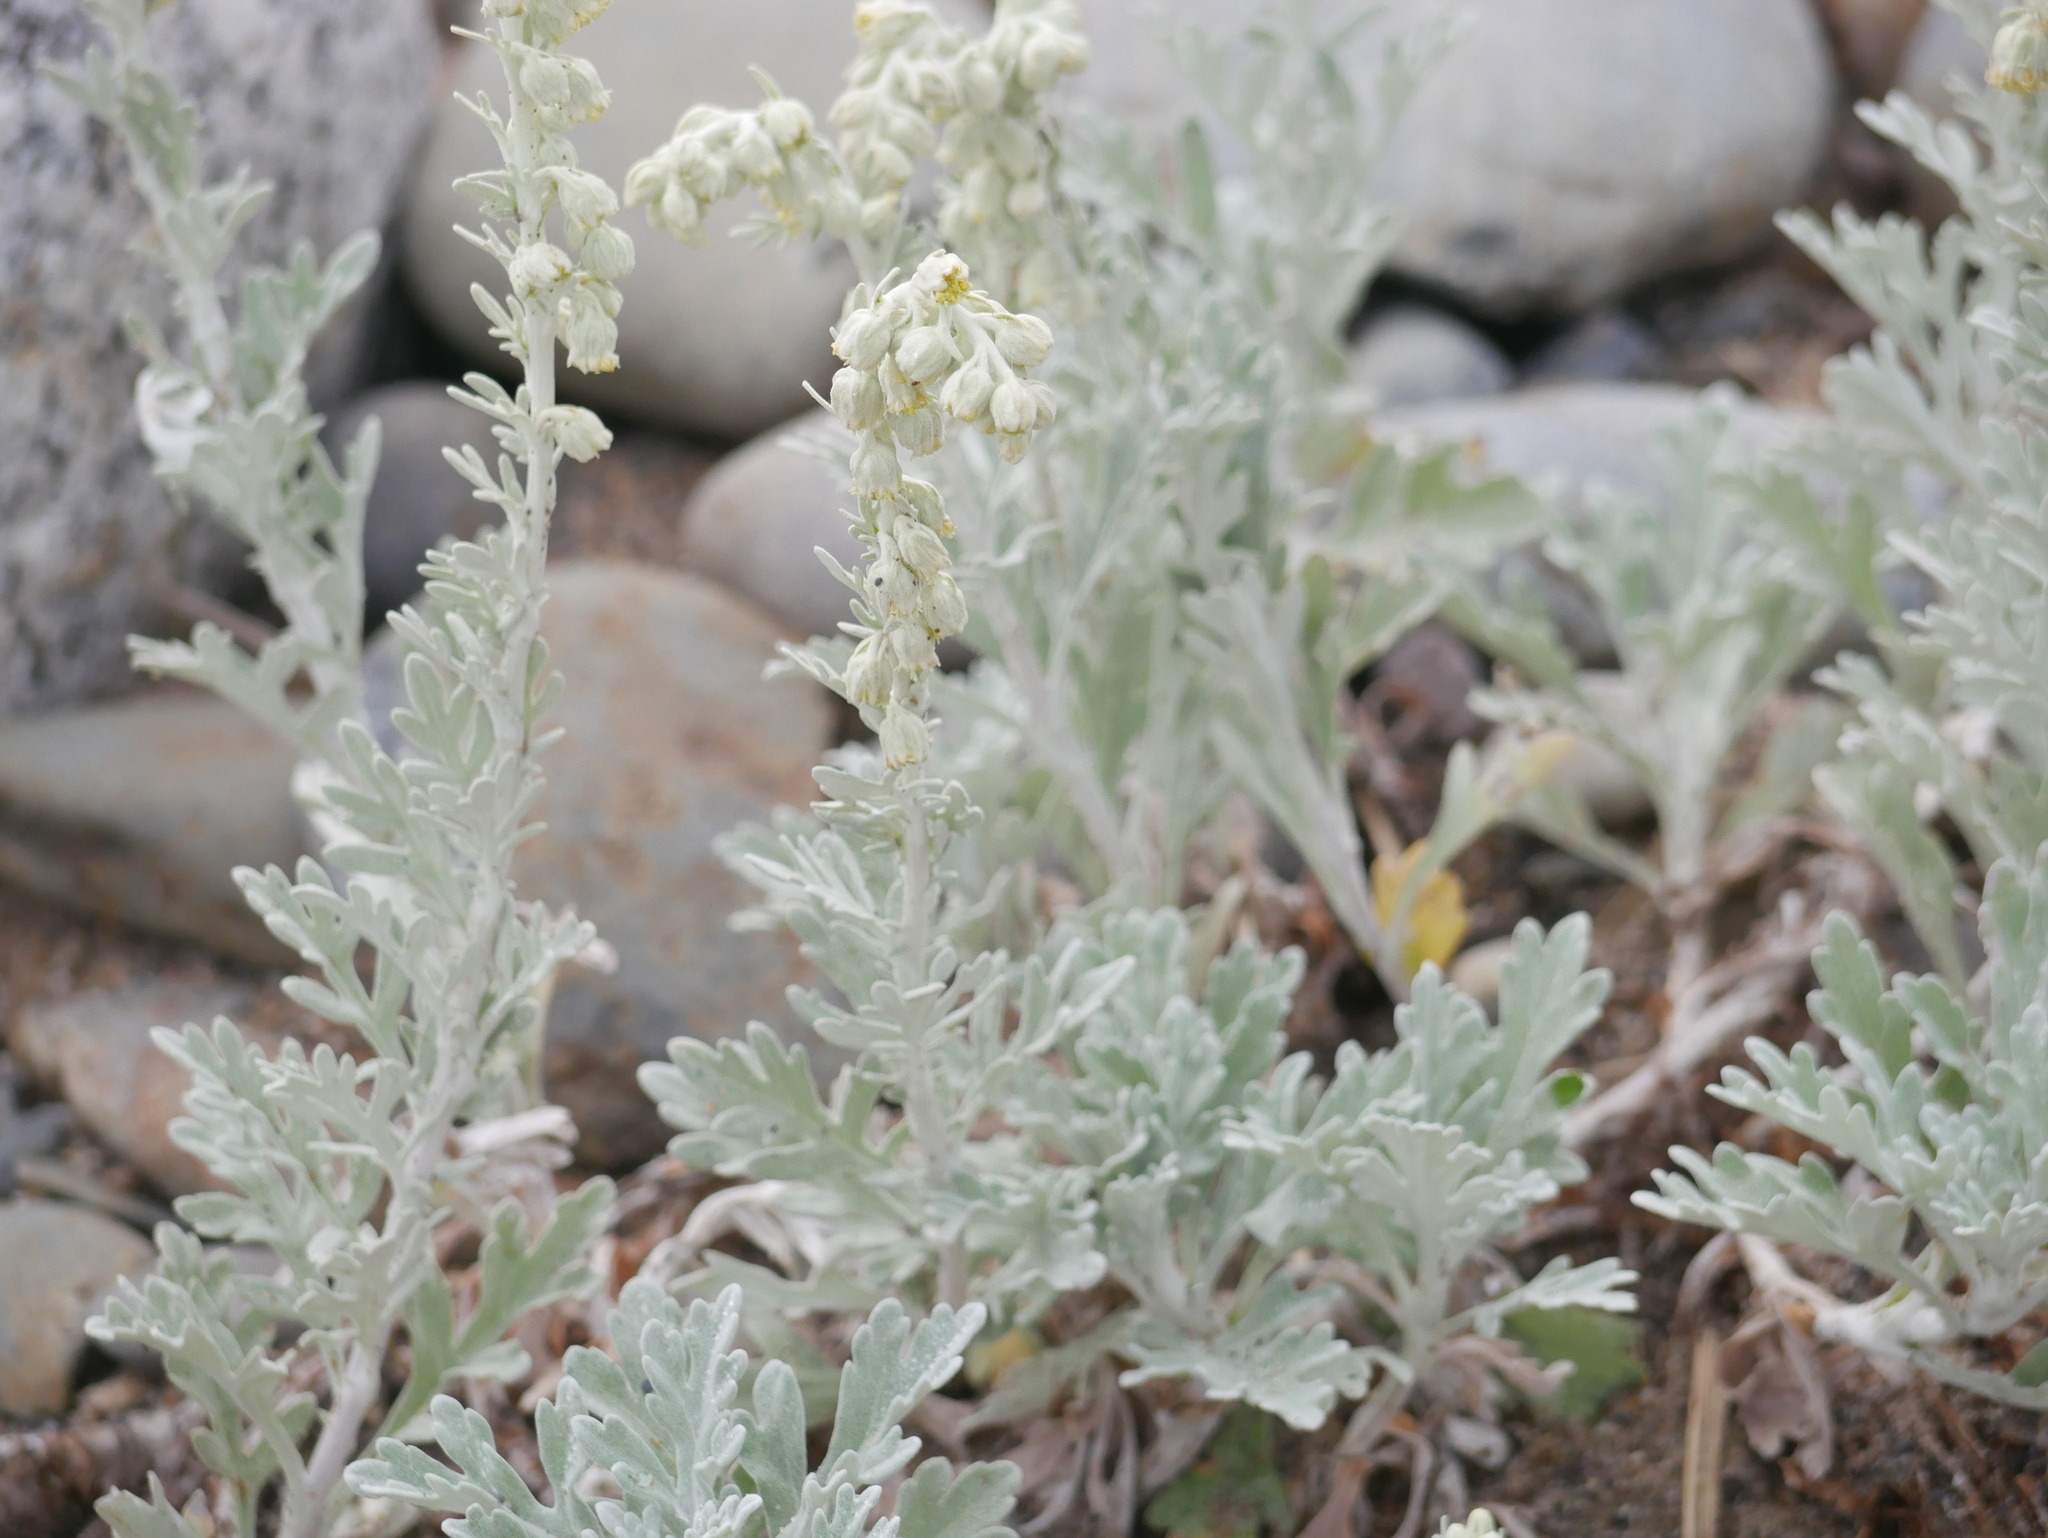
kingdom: Plantae
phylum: Tracheophyta
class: Magnoliopsida
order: Asterales
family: Asteraceae
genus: Artemisia
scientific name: Artemisia stelleriana
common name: Beach wormwood
